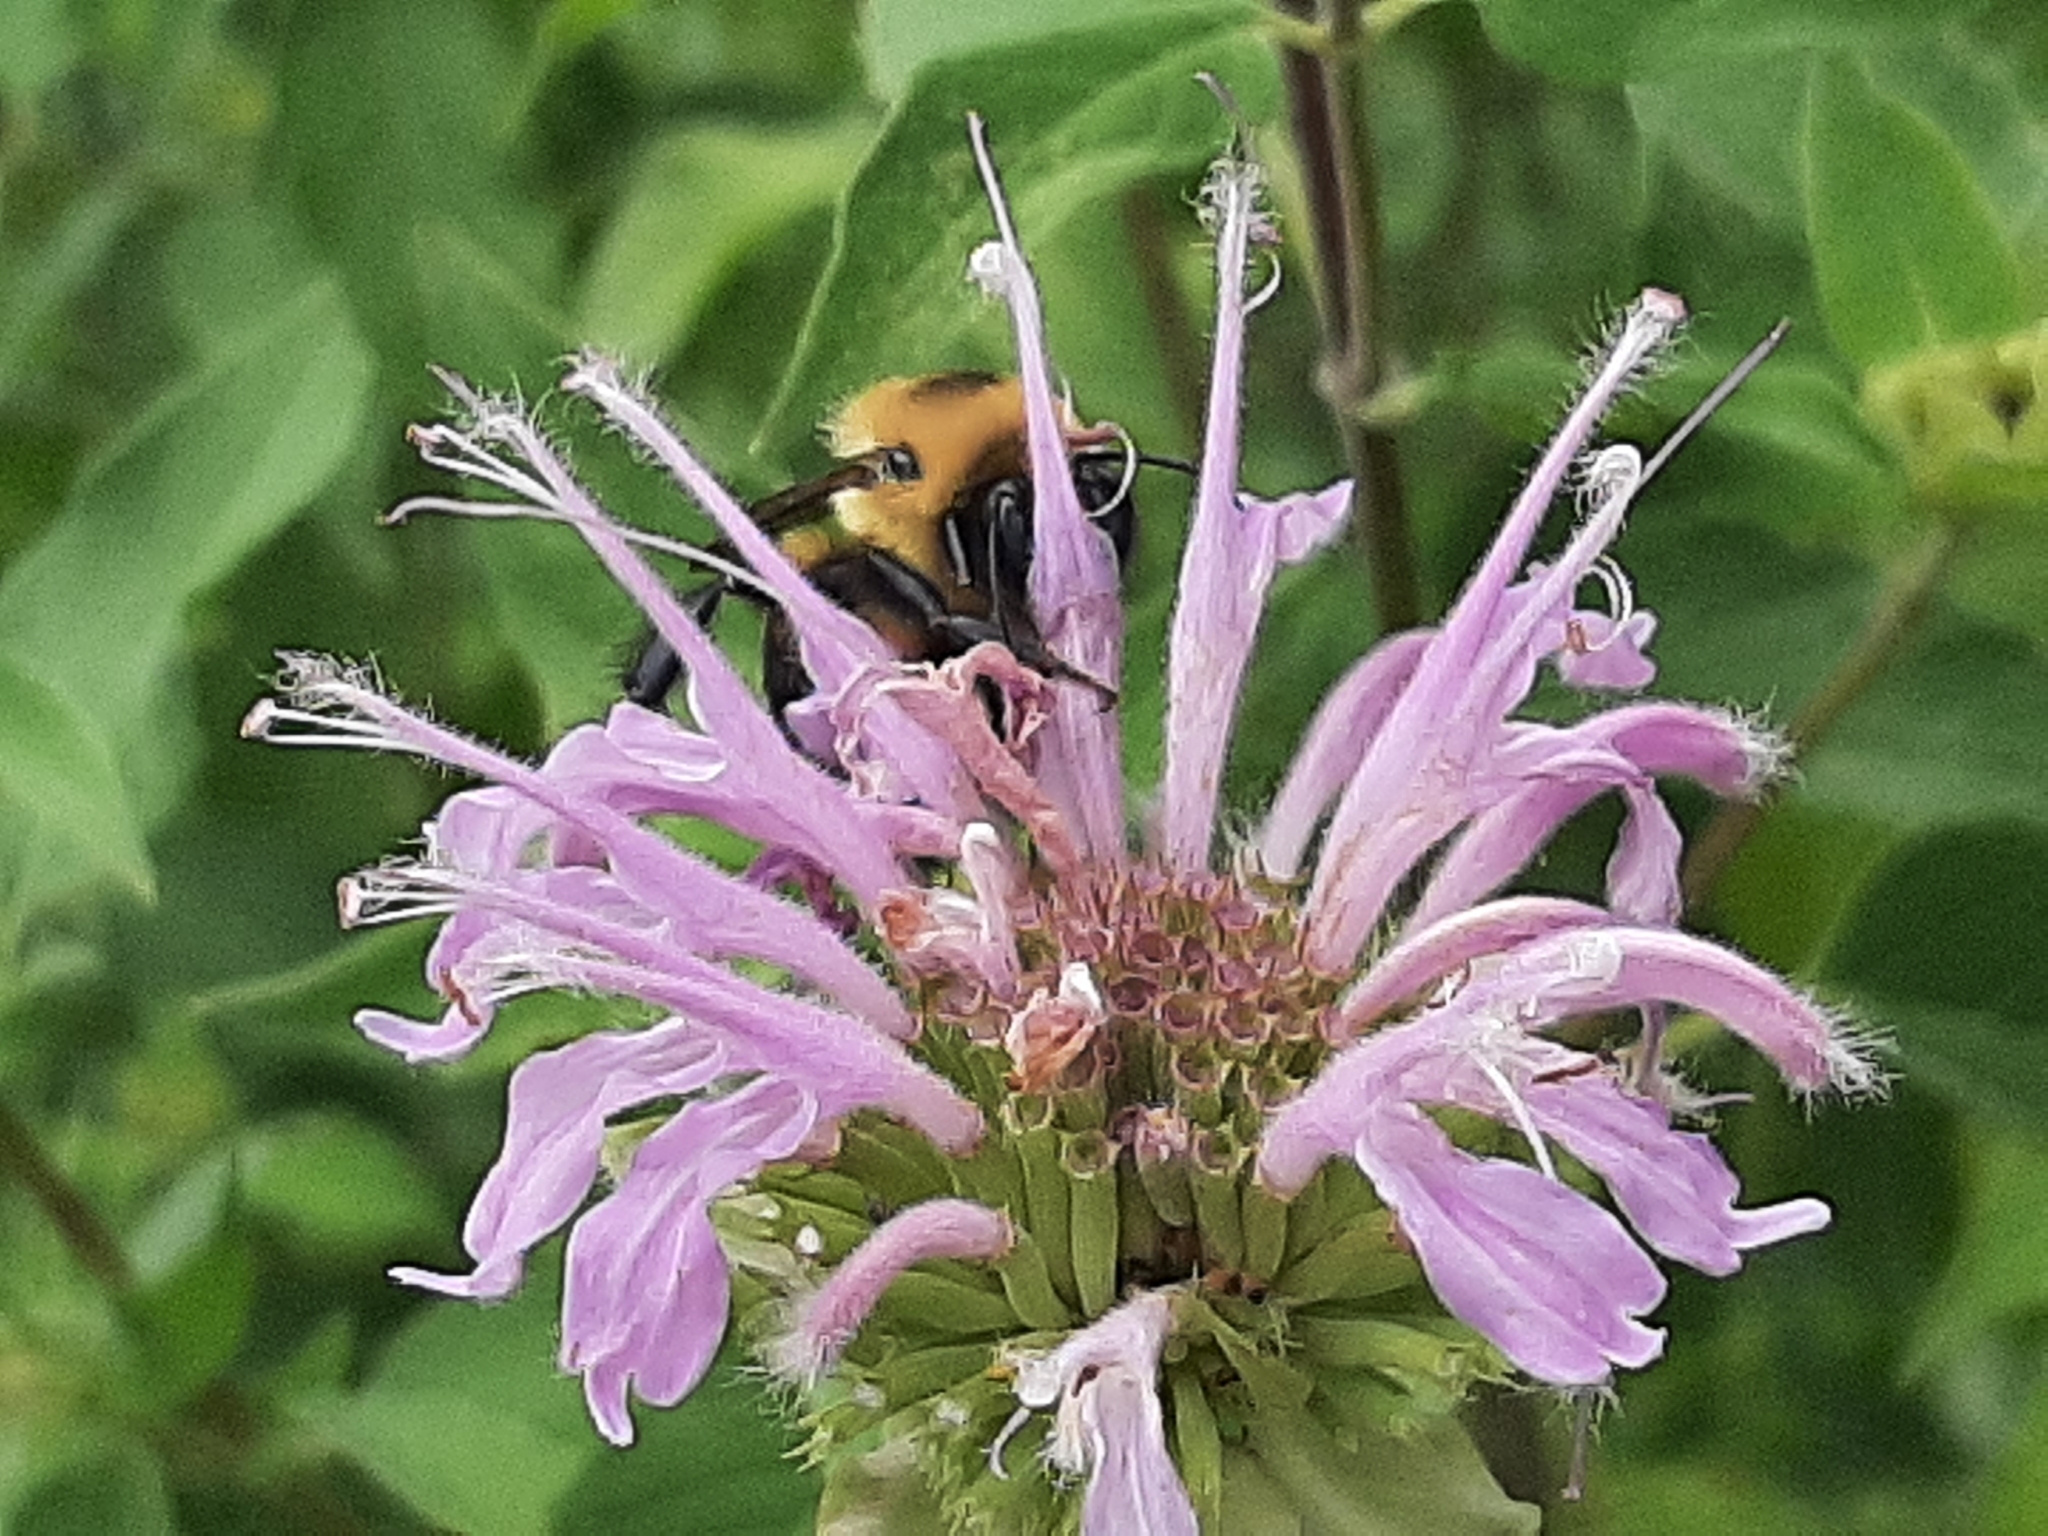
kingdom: Animalia
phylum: Arthropoda
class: Insecta
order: Hymenoptera
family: Apidae
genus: Bombus
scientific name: Bombus griseocollis
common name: Brown-belted bumble bee
